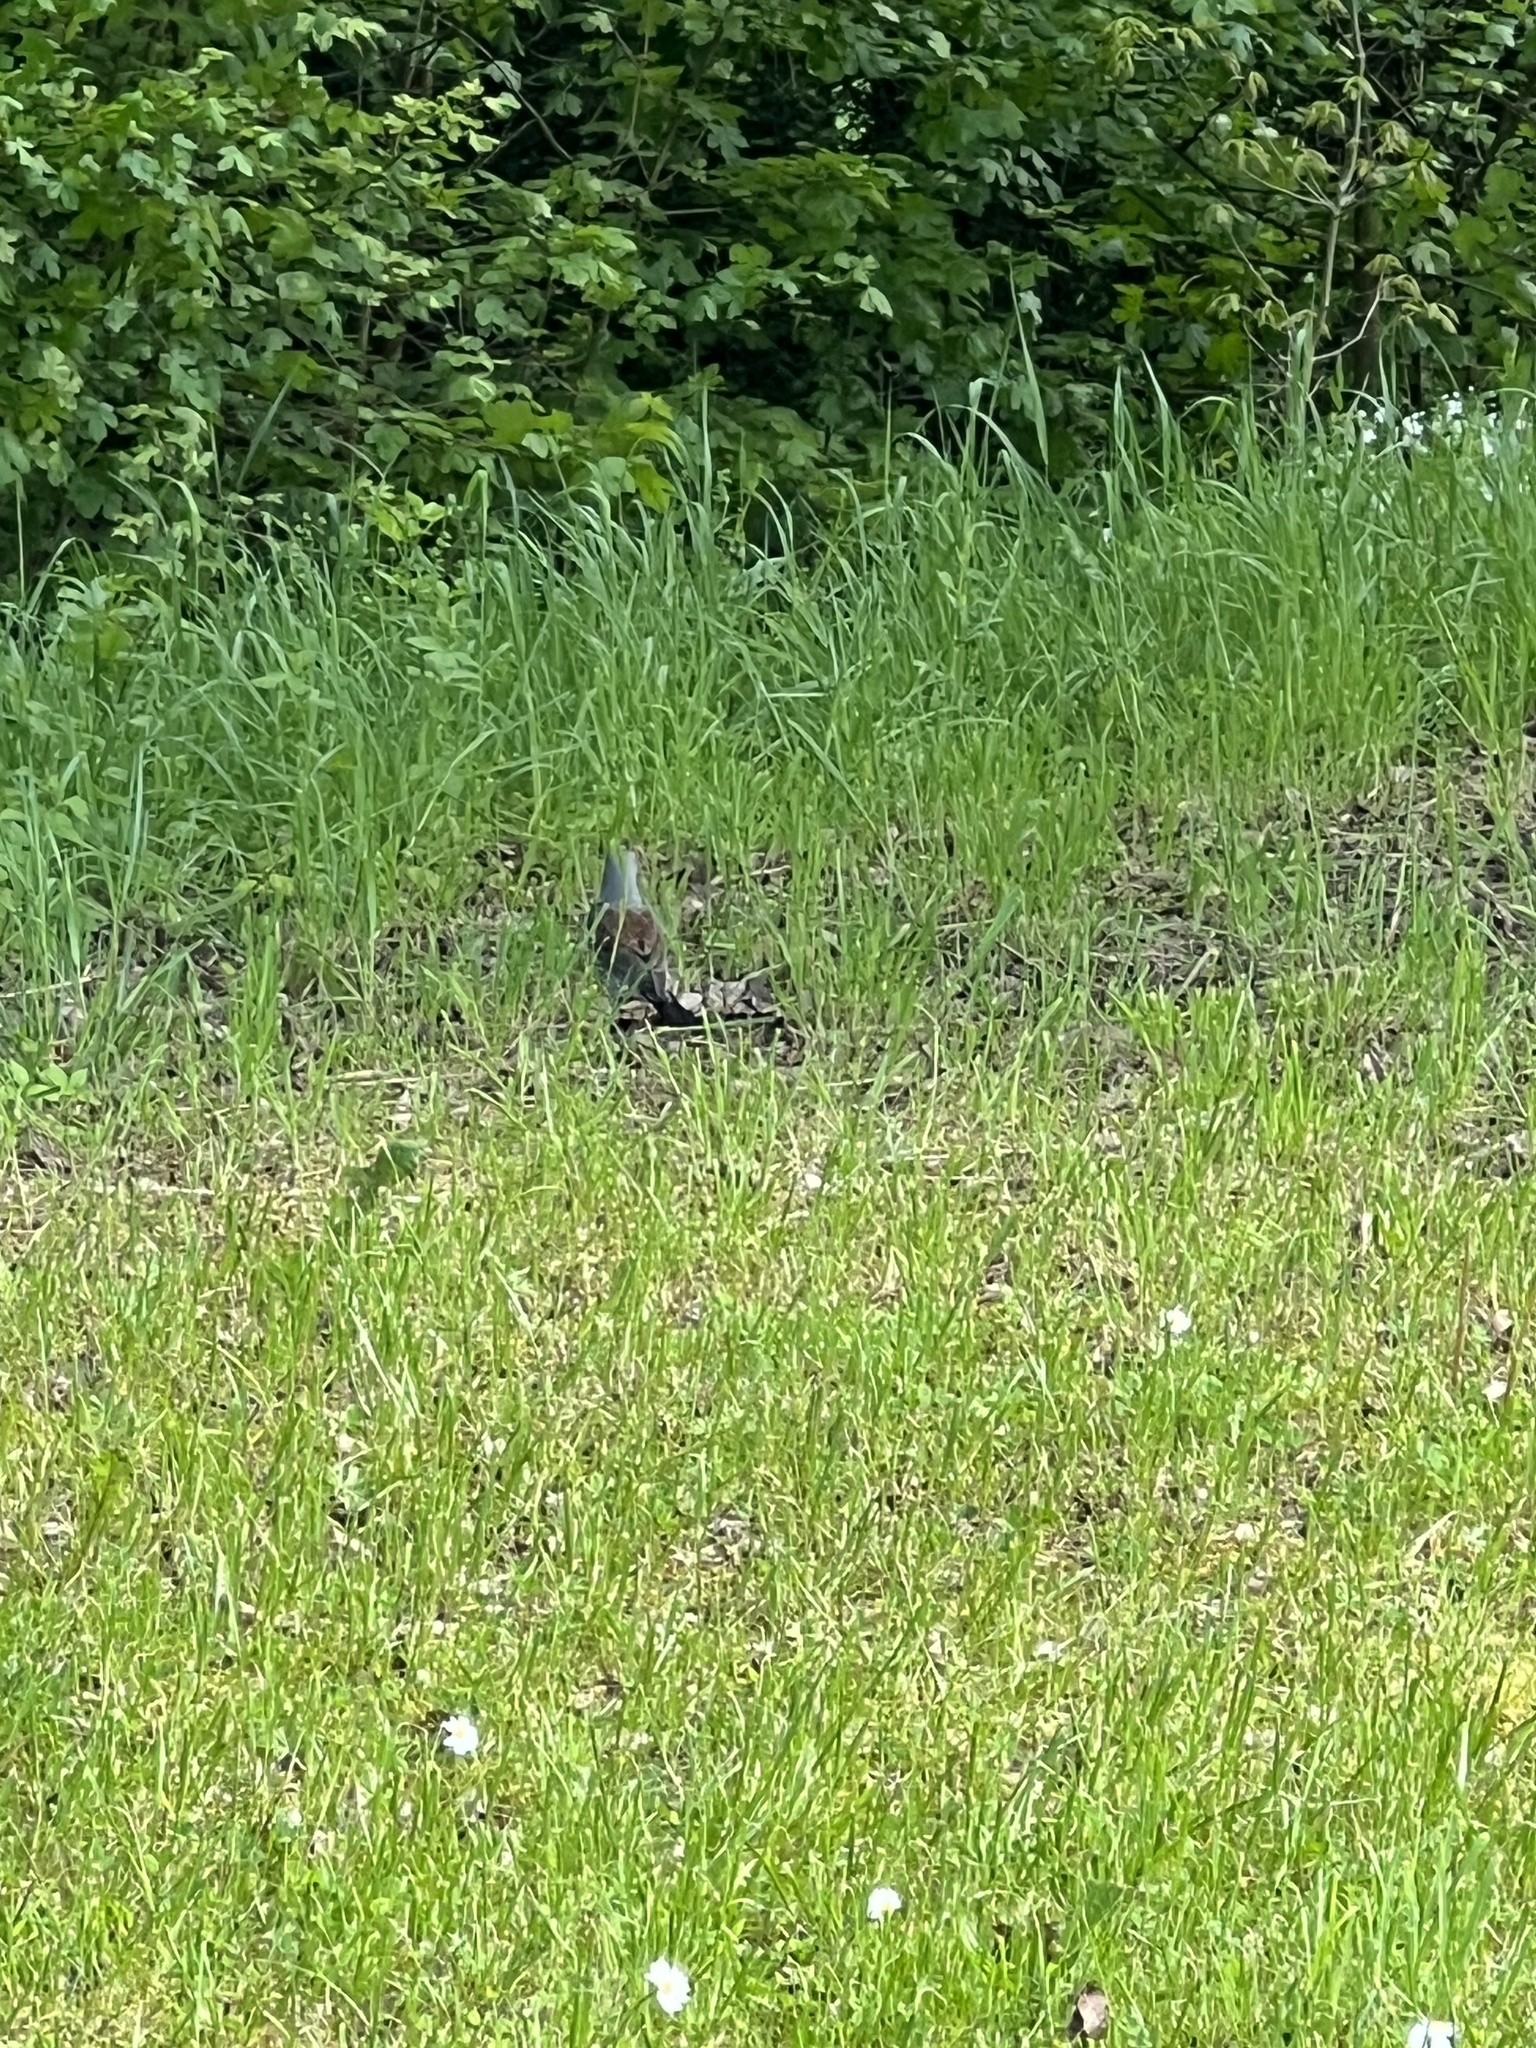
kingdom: Animalia
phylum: Chordata
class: Aves
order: Passeriformes
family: Turdidae
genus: Turdus
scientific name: Turdus pilaris
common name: Fieldfare
